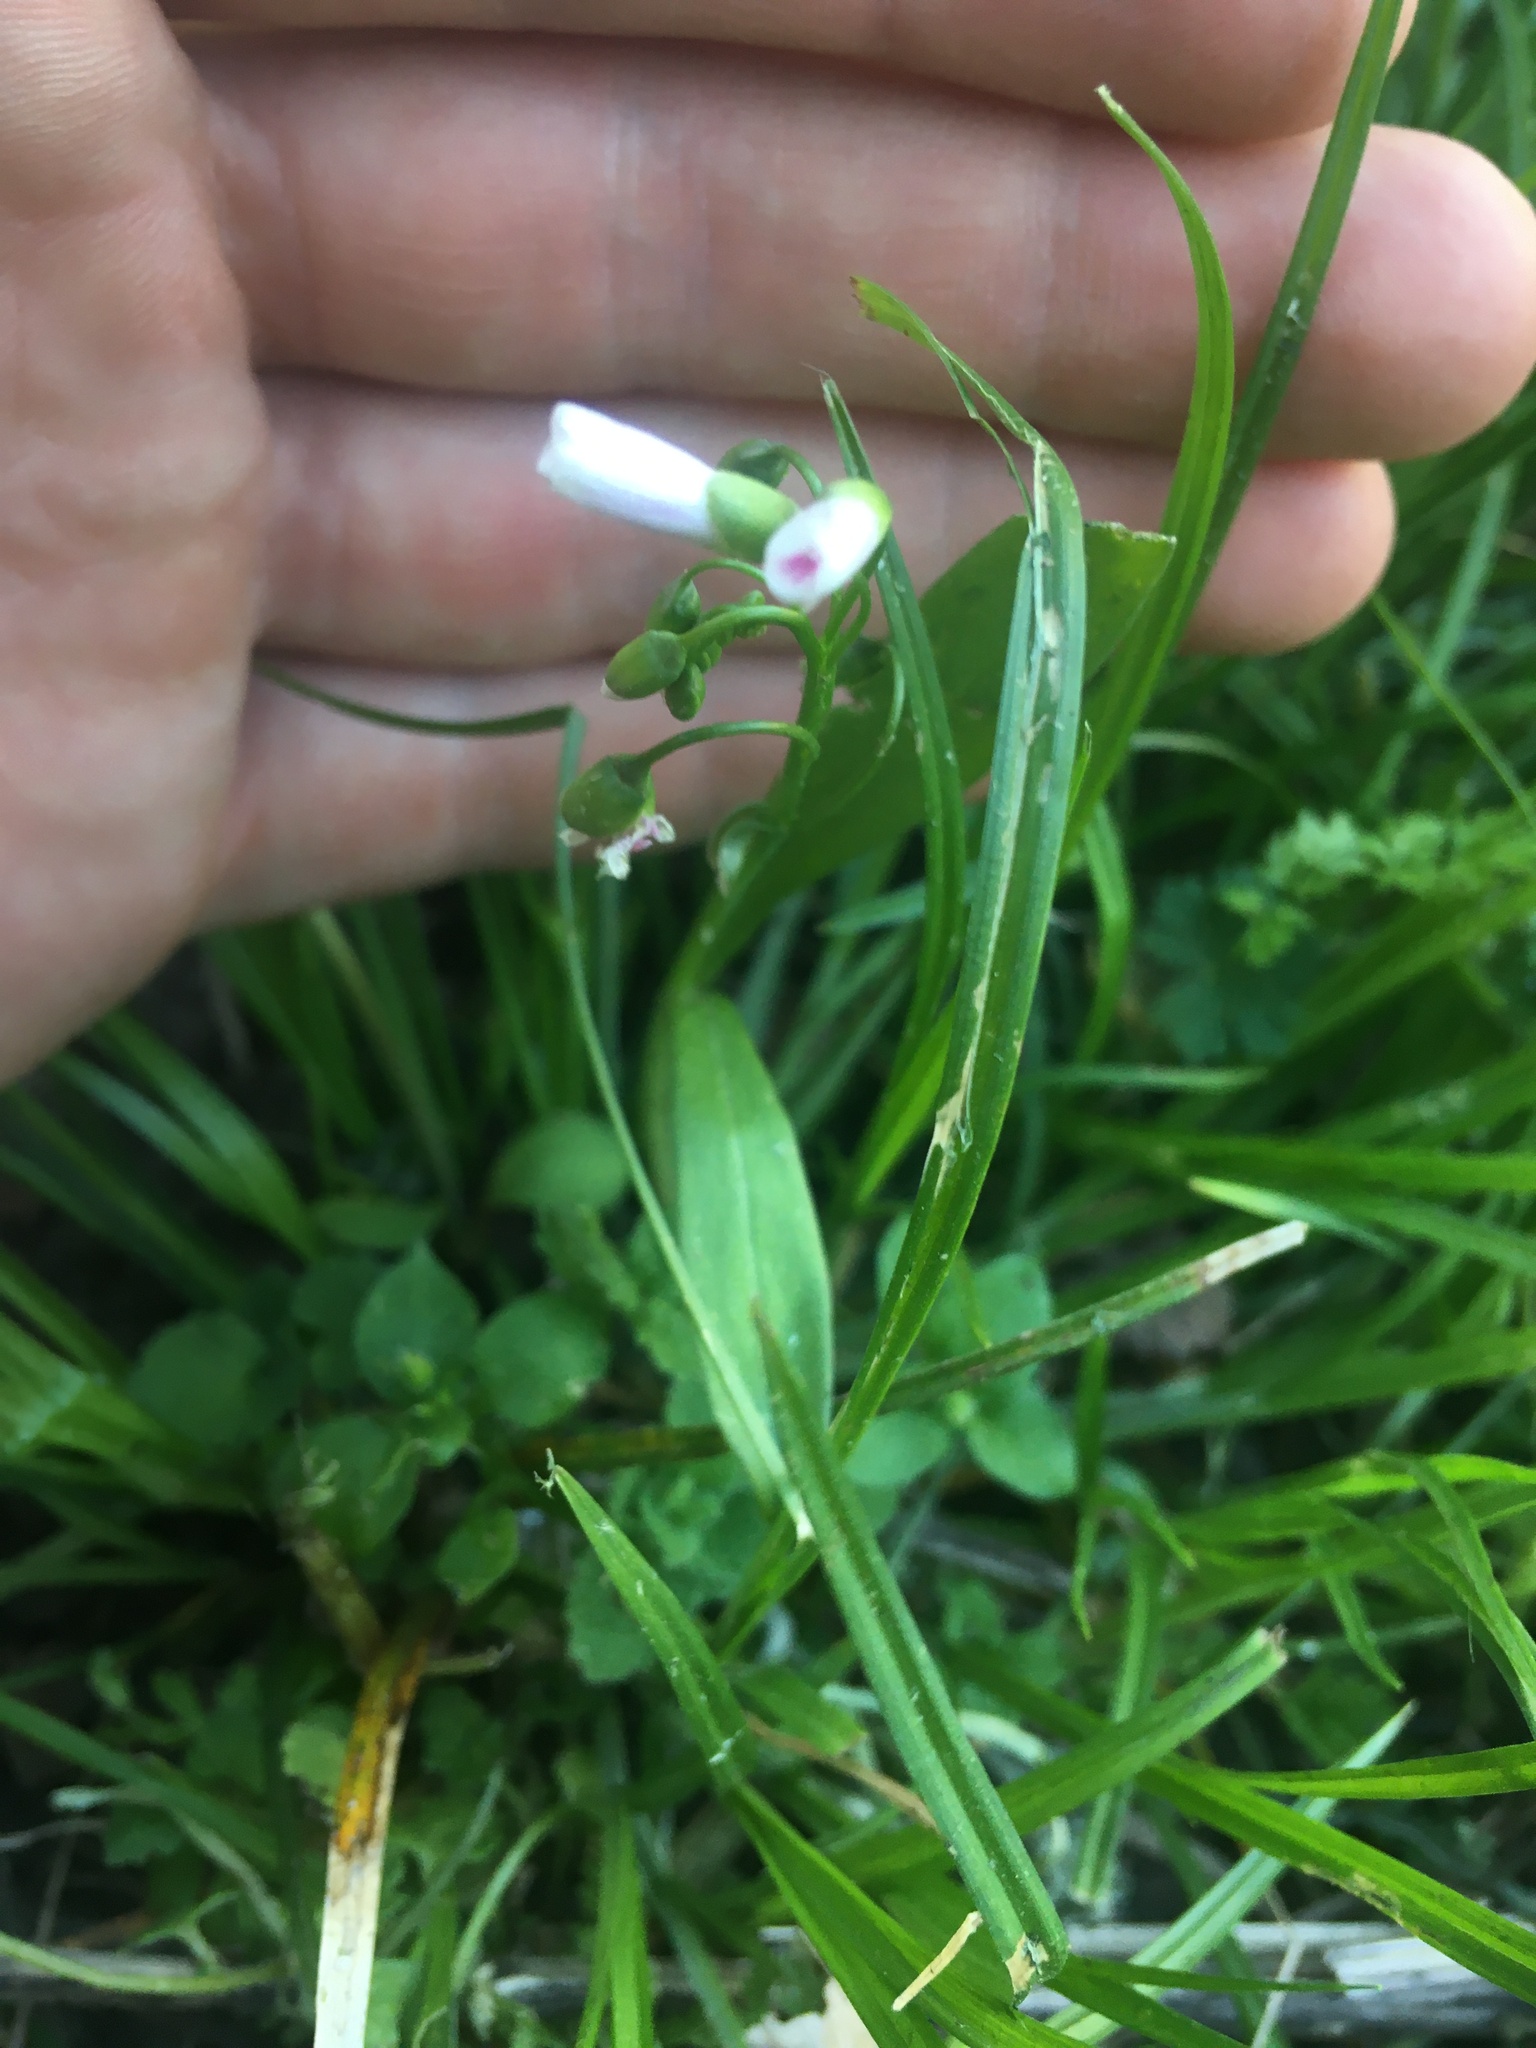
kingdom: Plantae
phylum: Tracheophyta
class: Magnoliopsida
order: Caryophyllales
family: Montiaceae
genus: Claytonia
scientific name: Claytonia virginica
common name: Virginia springbeauty
